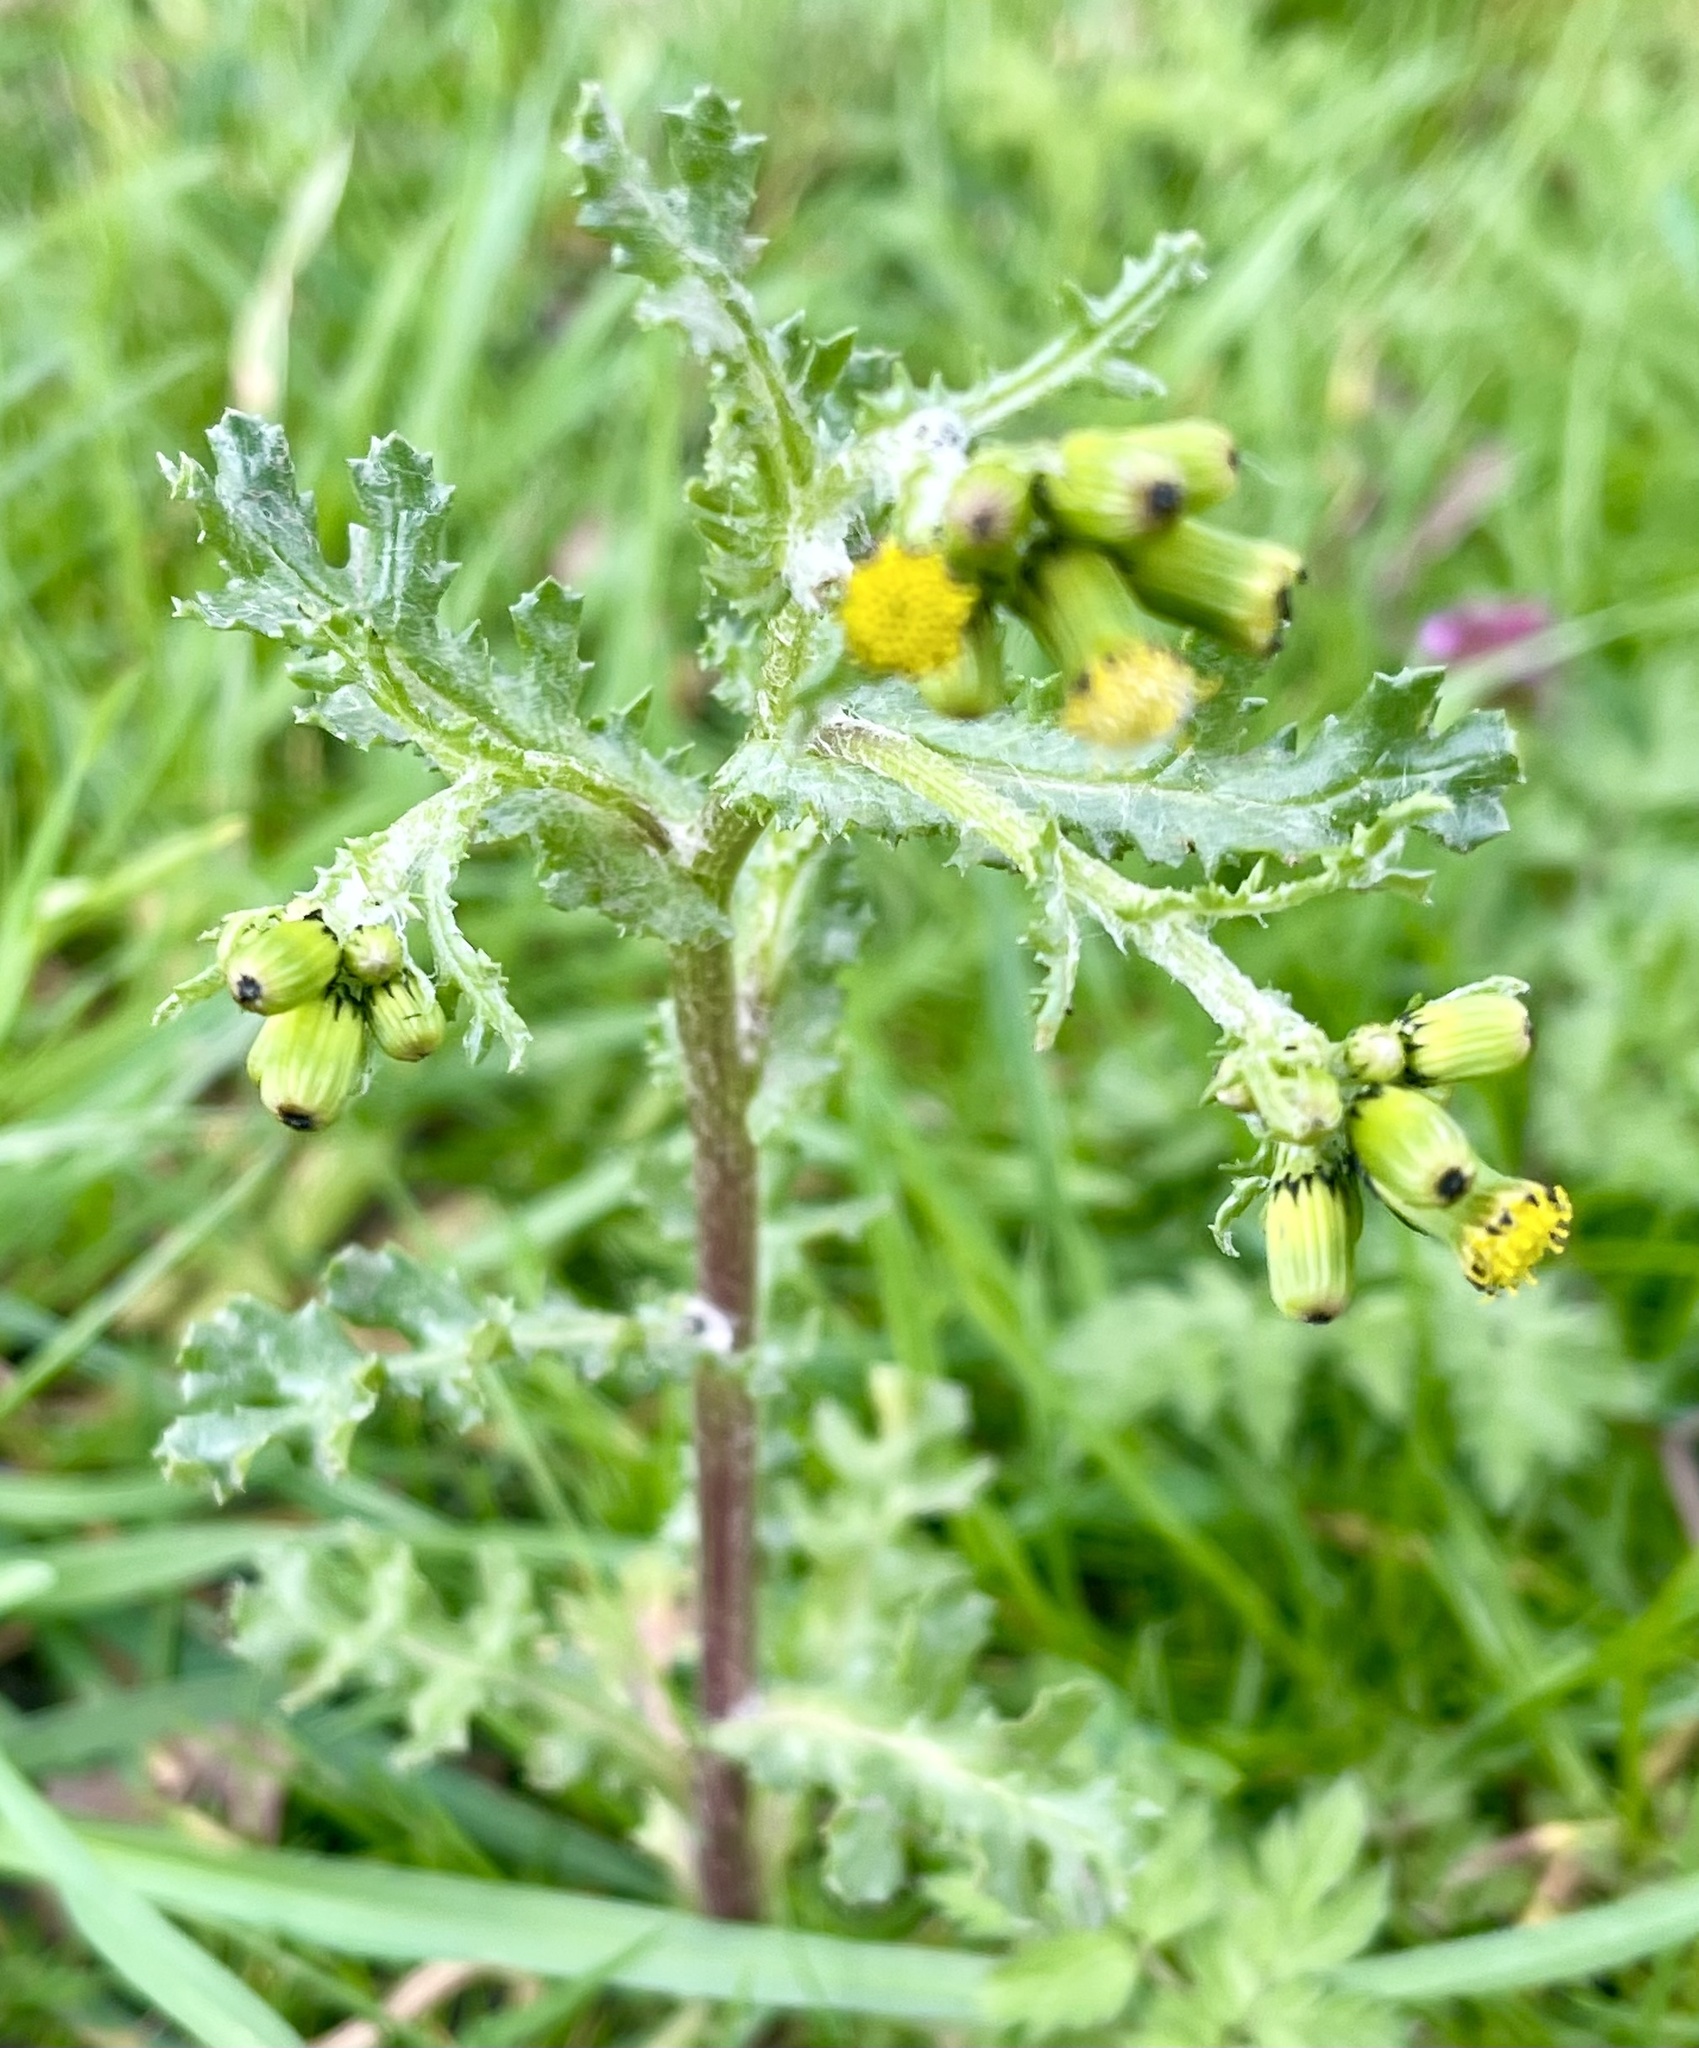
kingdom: Plantae
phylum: Tracheophyta
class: Magnoliopsida
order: Asterales
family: Asteraceae
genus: Senecio
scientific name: Senecio vulgaris
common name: Old-man-in-the-spring
